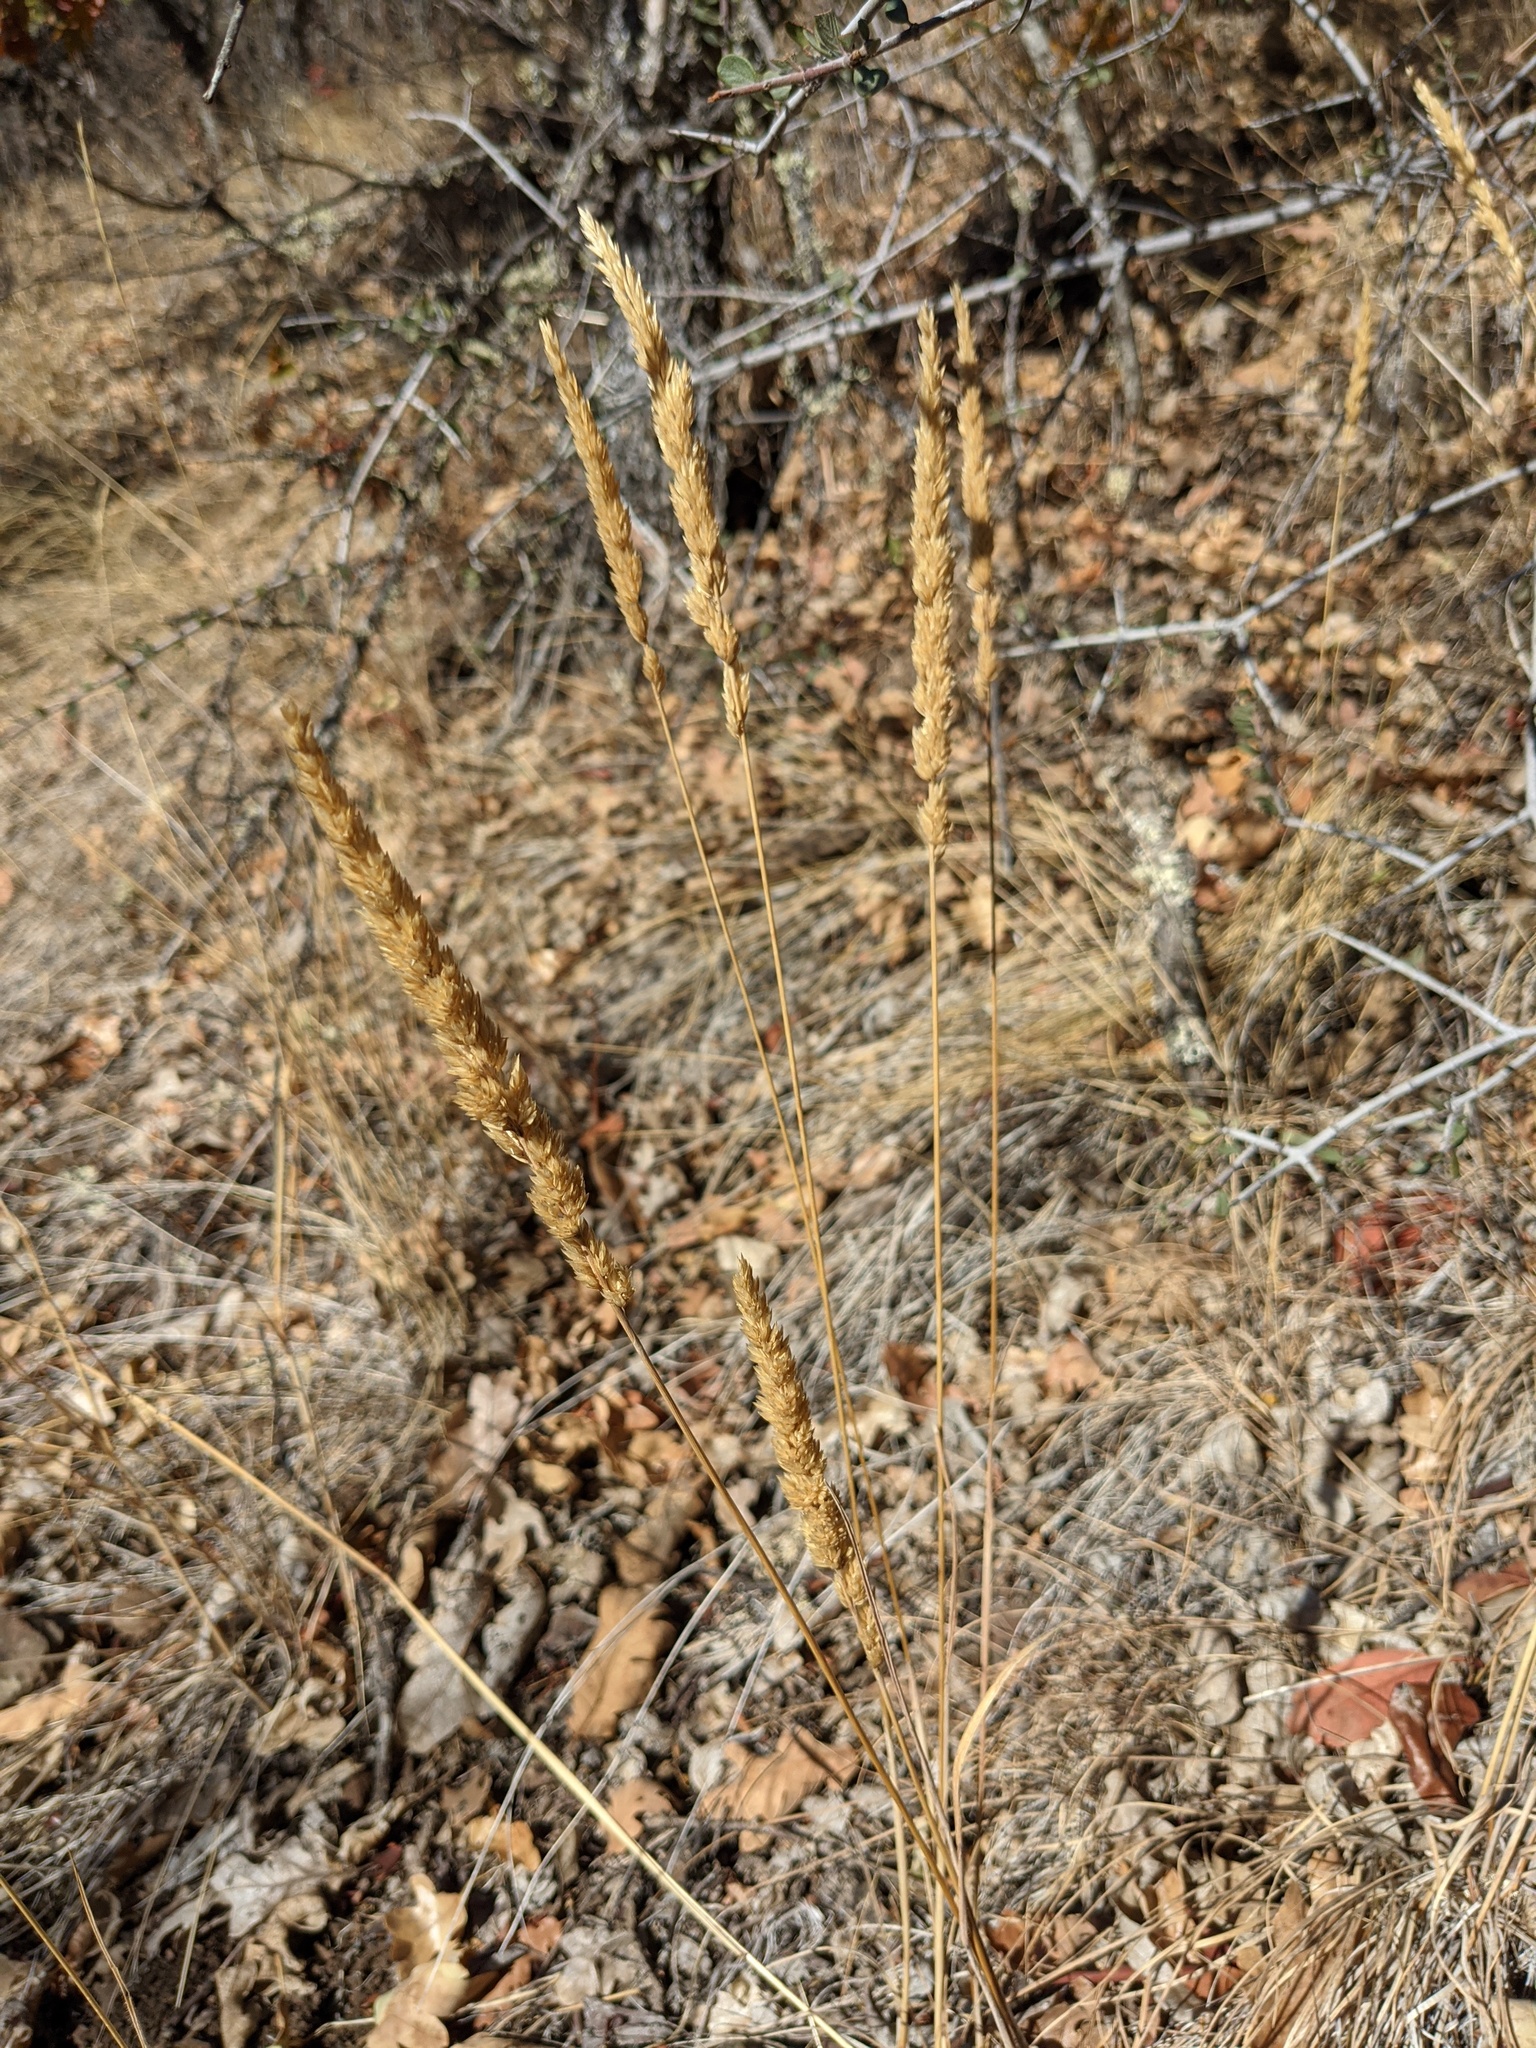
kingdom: Plantae
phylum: Tracheophyta
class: Liliopsida
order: Poales
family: Poaceae
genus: Koeleria
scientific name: Koeleria macrantha
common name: Crested hair-grass
